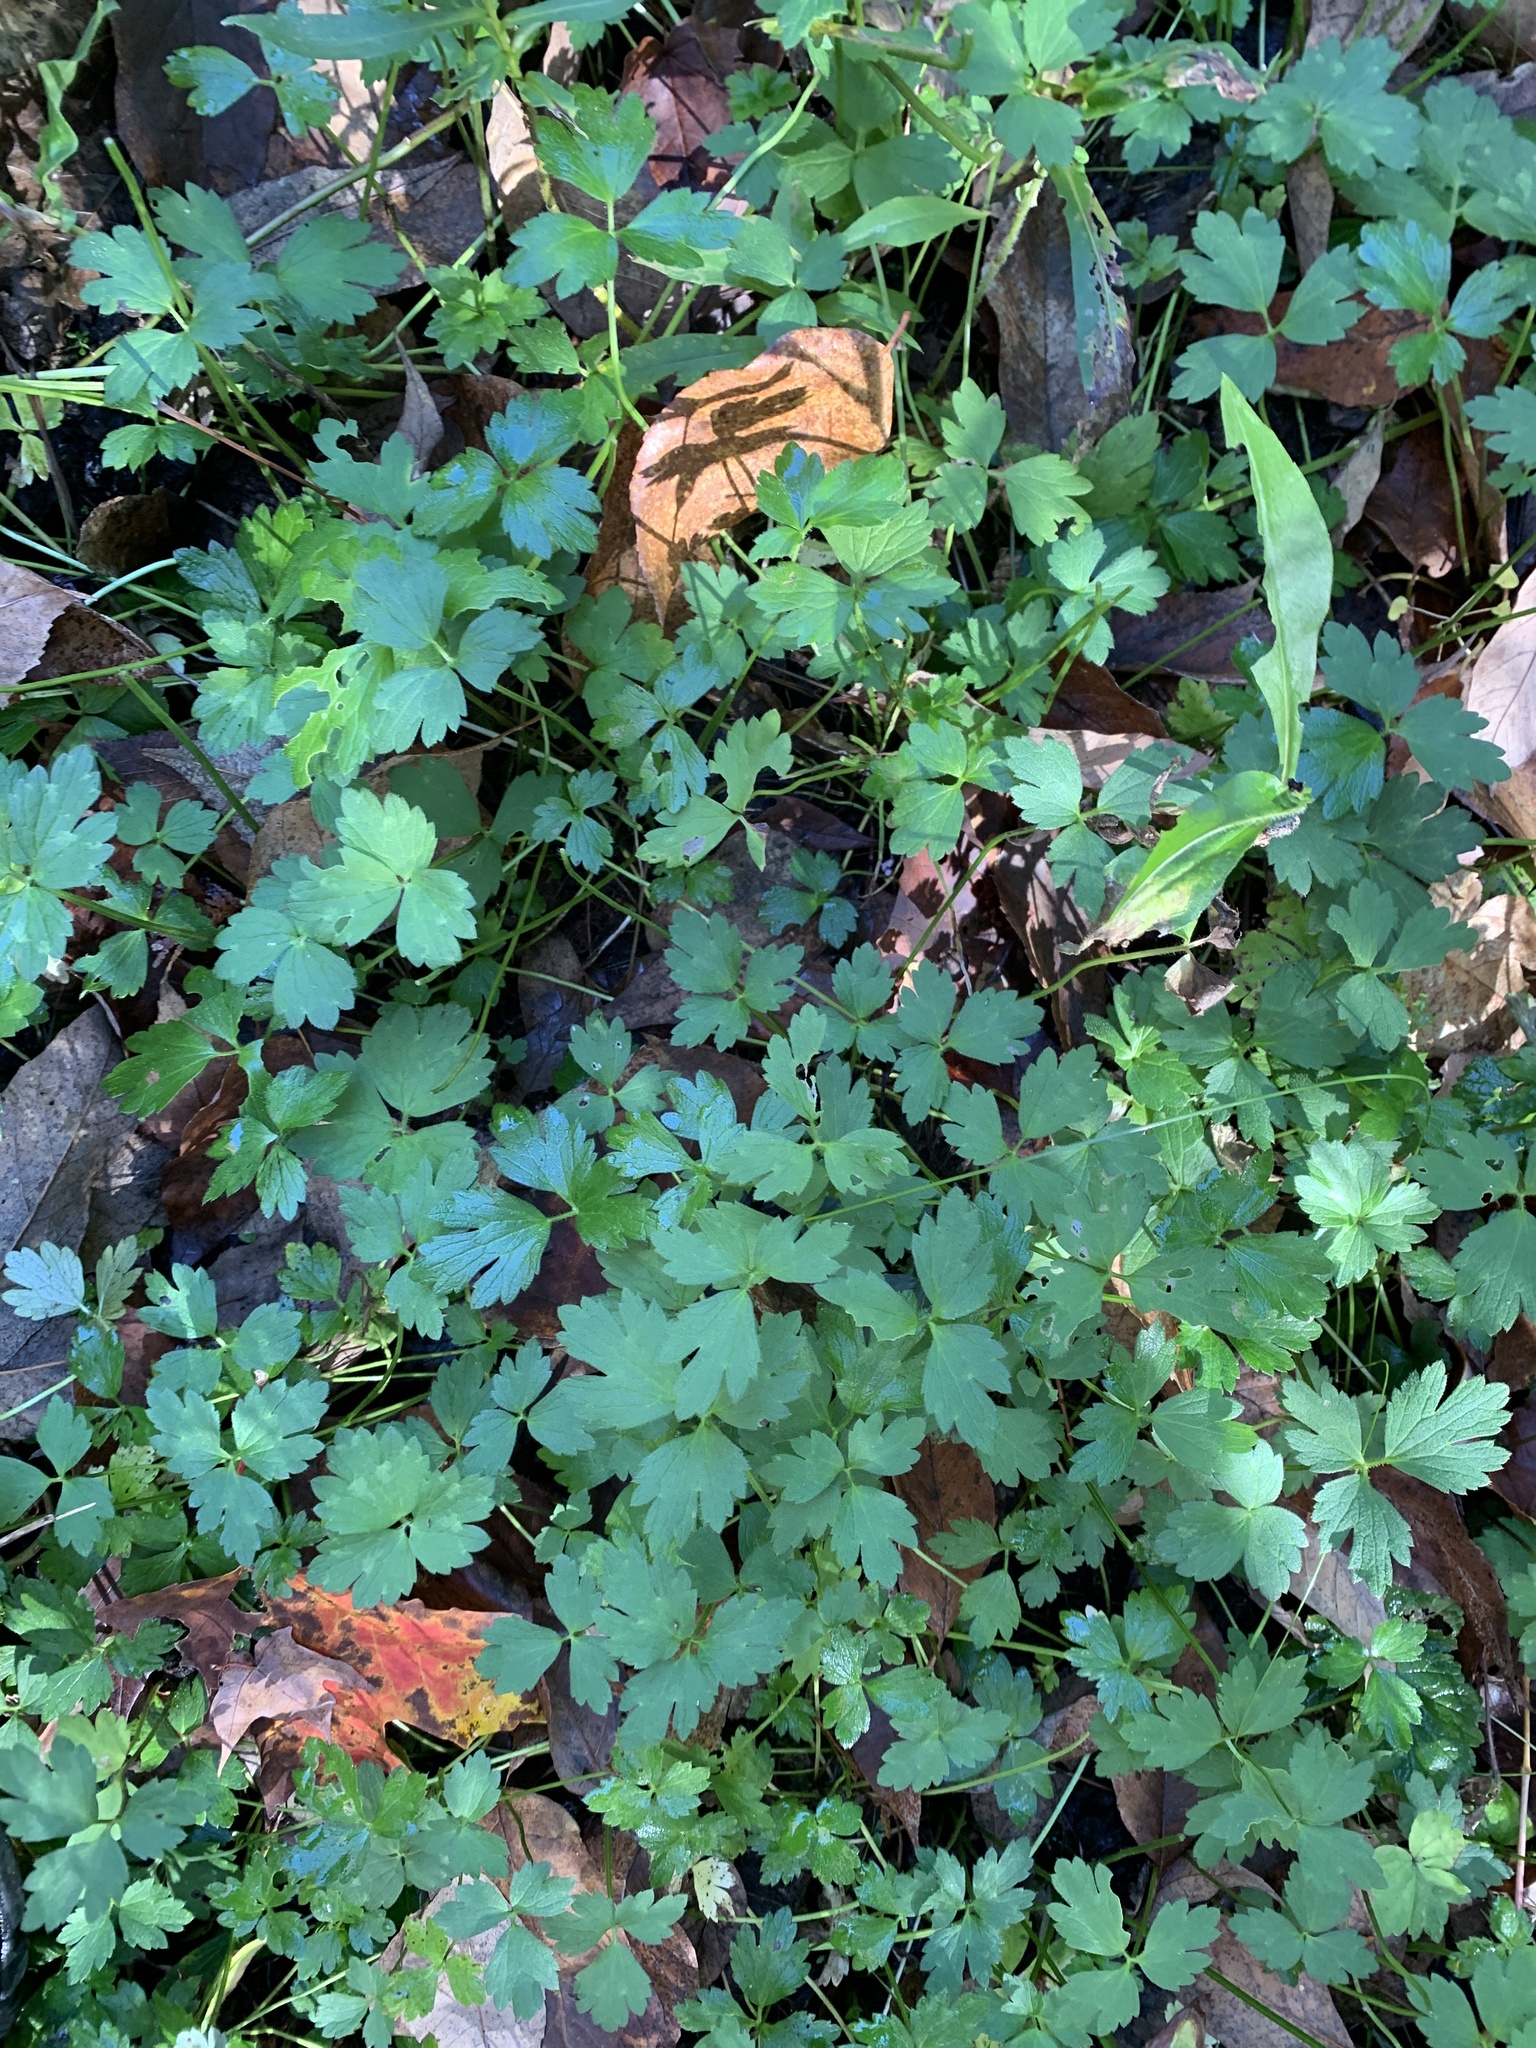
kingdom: Plantae
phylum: Tracheophyta
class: Magnoliopsida
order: Ranunculales
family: Ranunculaceae
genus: Ranunculus
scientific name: Ranunculus repens
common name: Creeping buttercup
